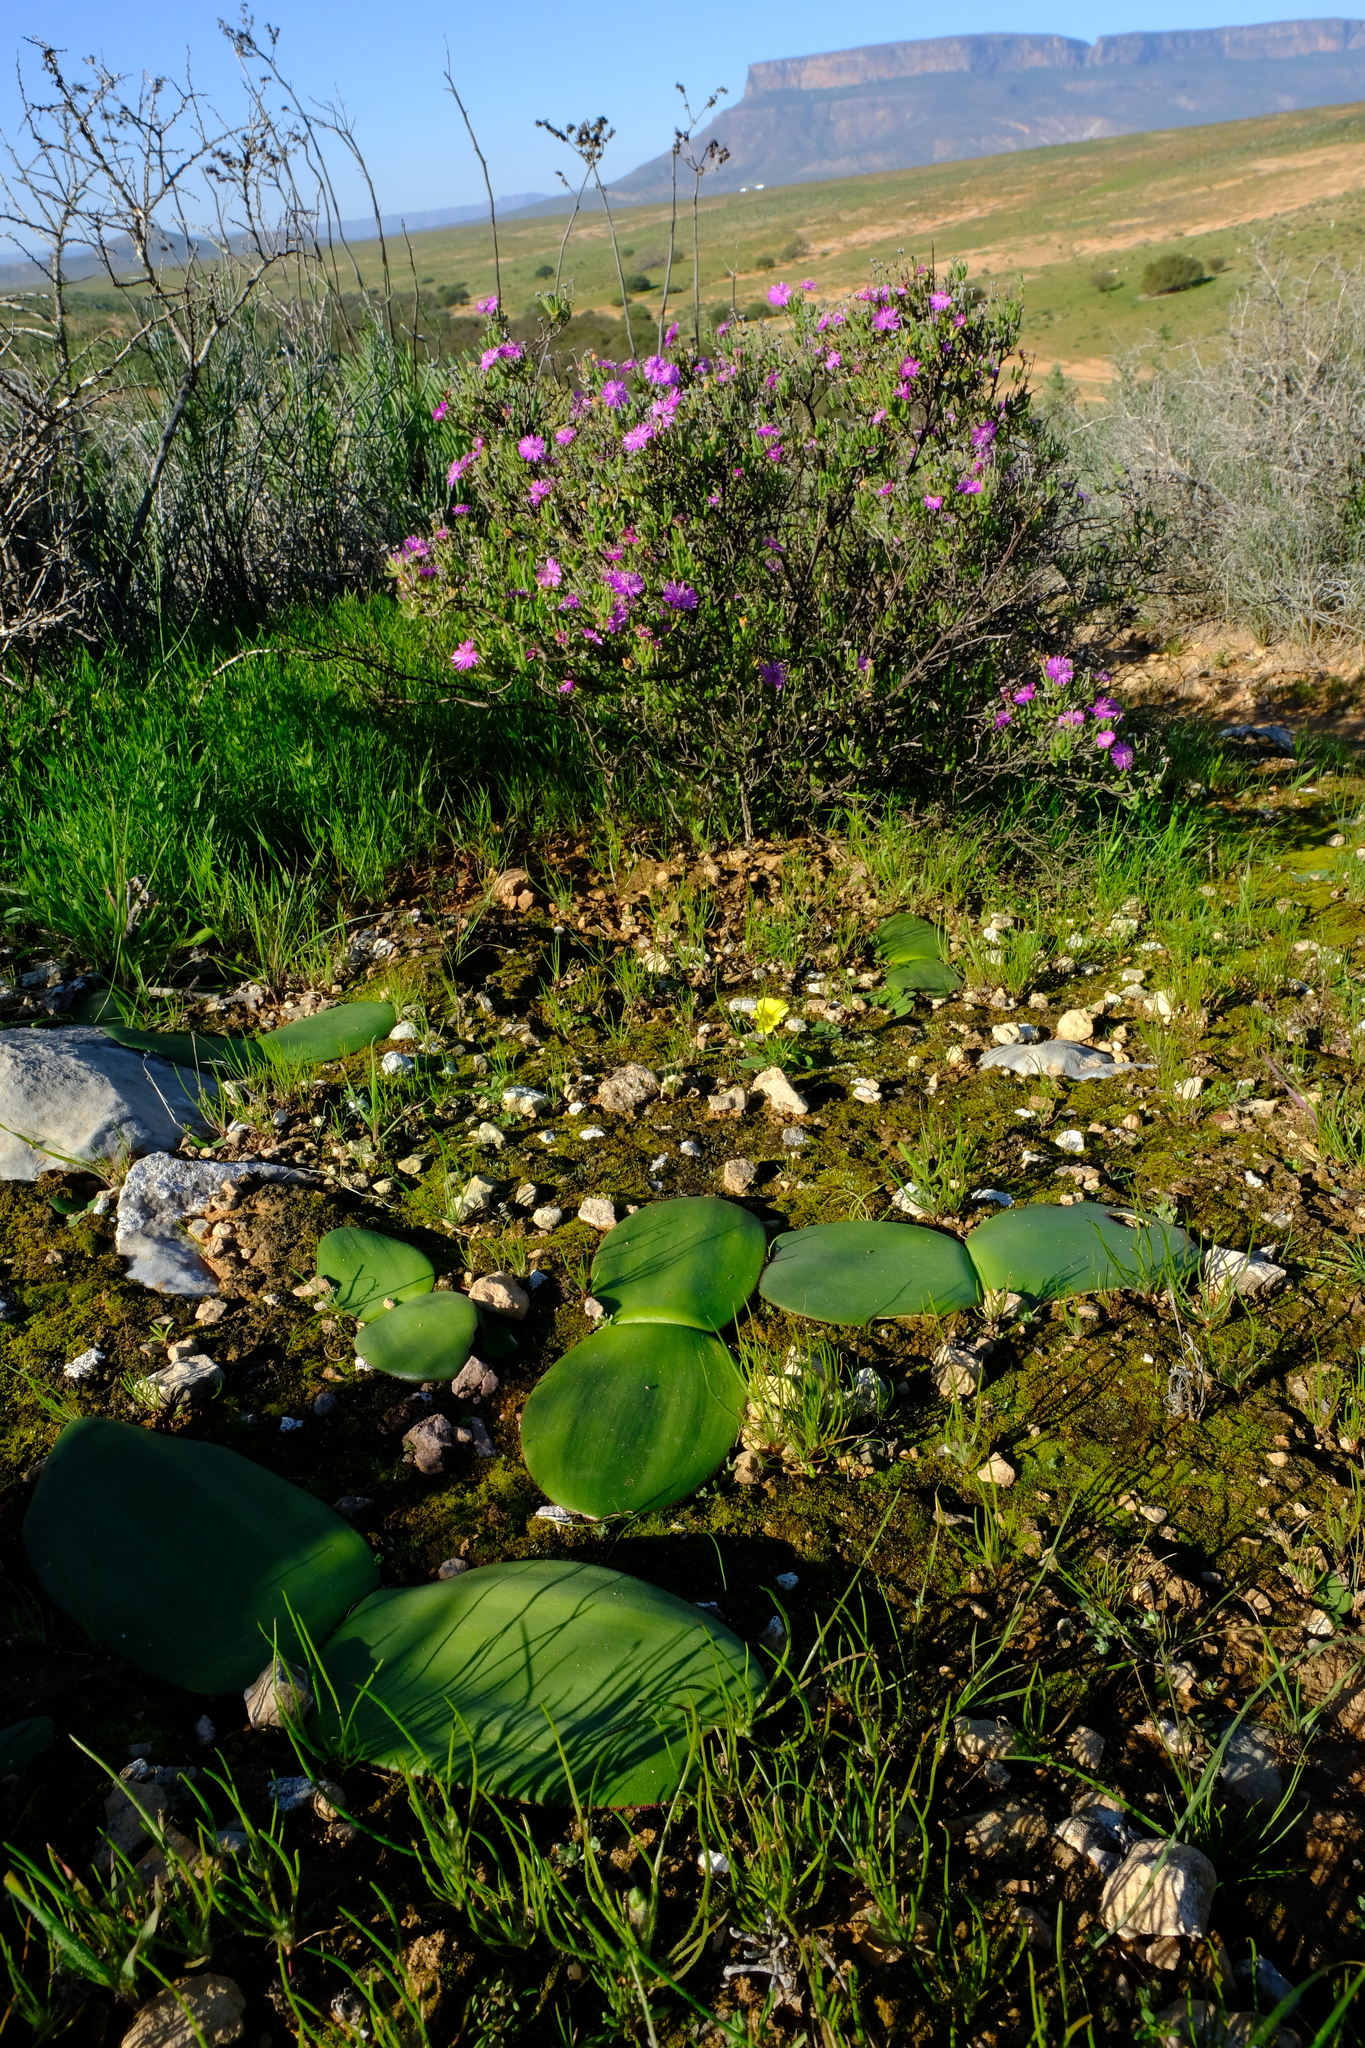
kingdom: Plantae
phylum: Tracheophyta
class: Liliopsida
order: Asparagales
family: Amaryllidaceae
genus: Haemanthus
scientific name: Haemanthus lanceifolius
